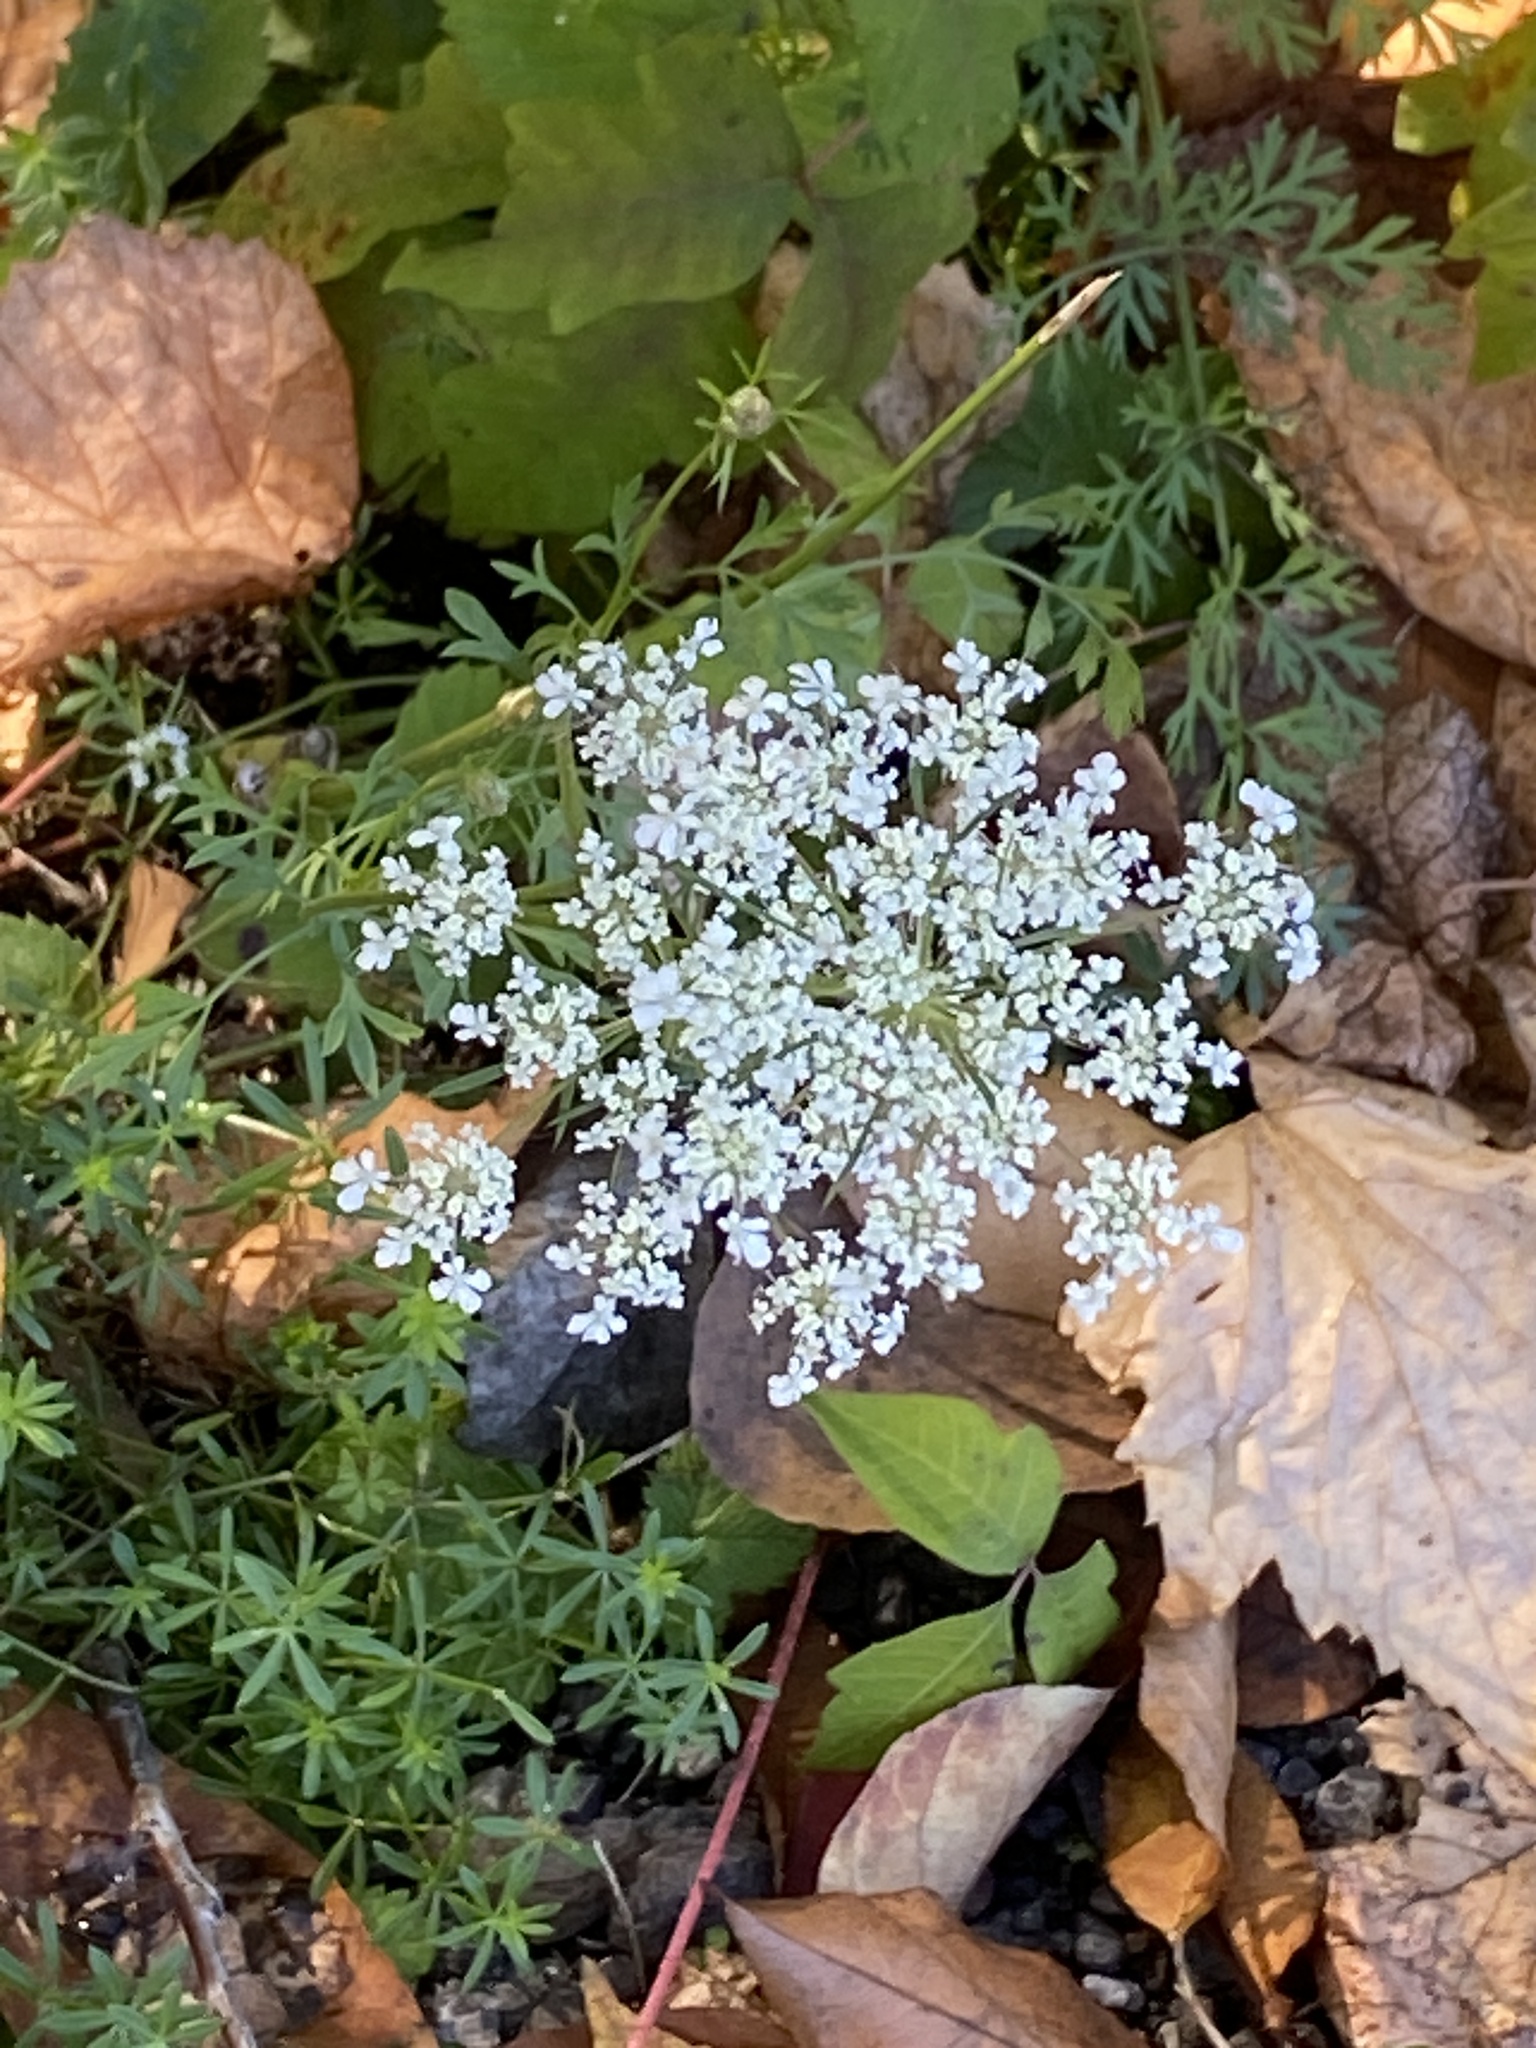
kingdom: Plantae
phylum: Tracheophyta
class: Magnoliopsida
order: Apiales
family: Apiaceae
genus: Daucus
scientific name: Daucus carota
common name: Wild carrot
